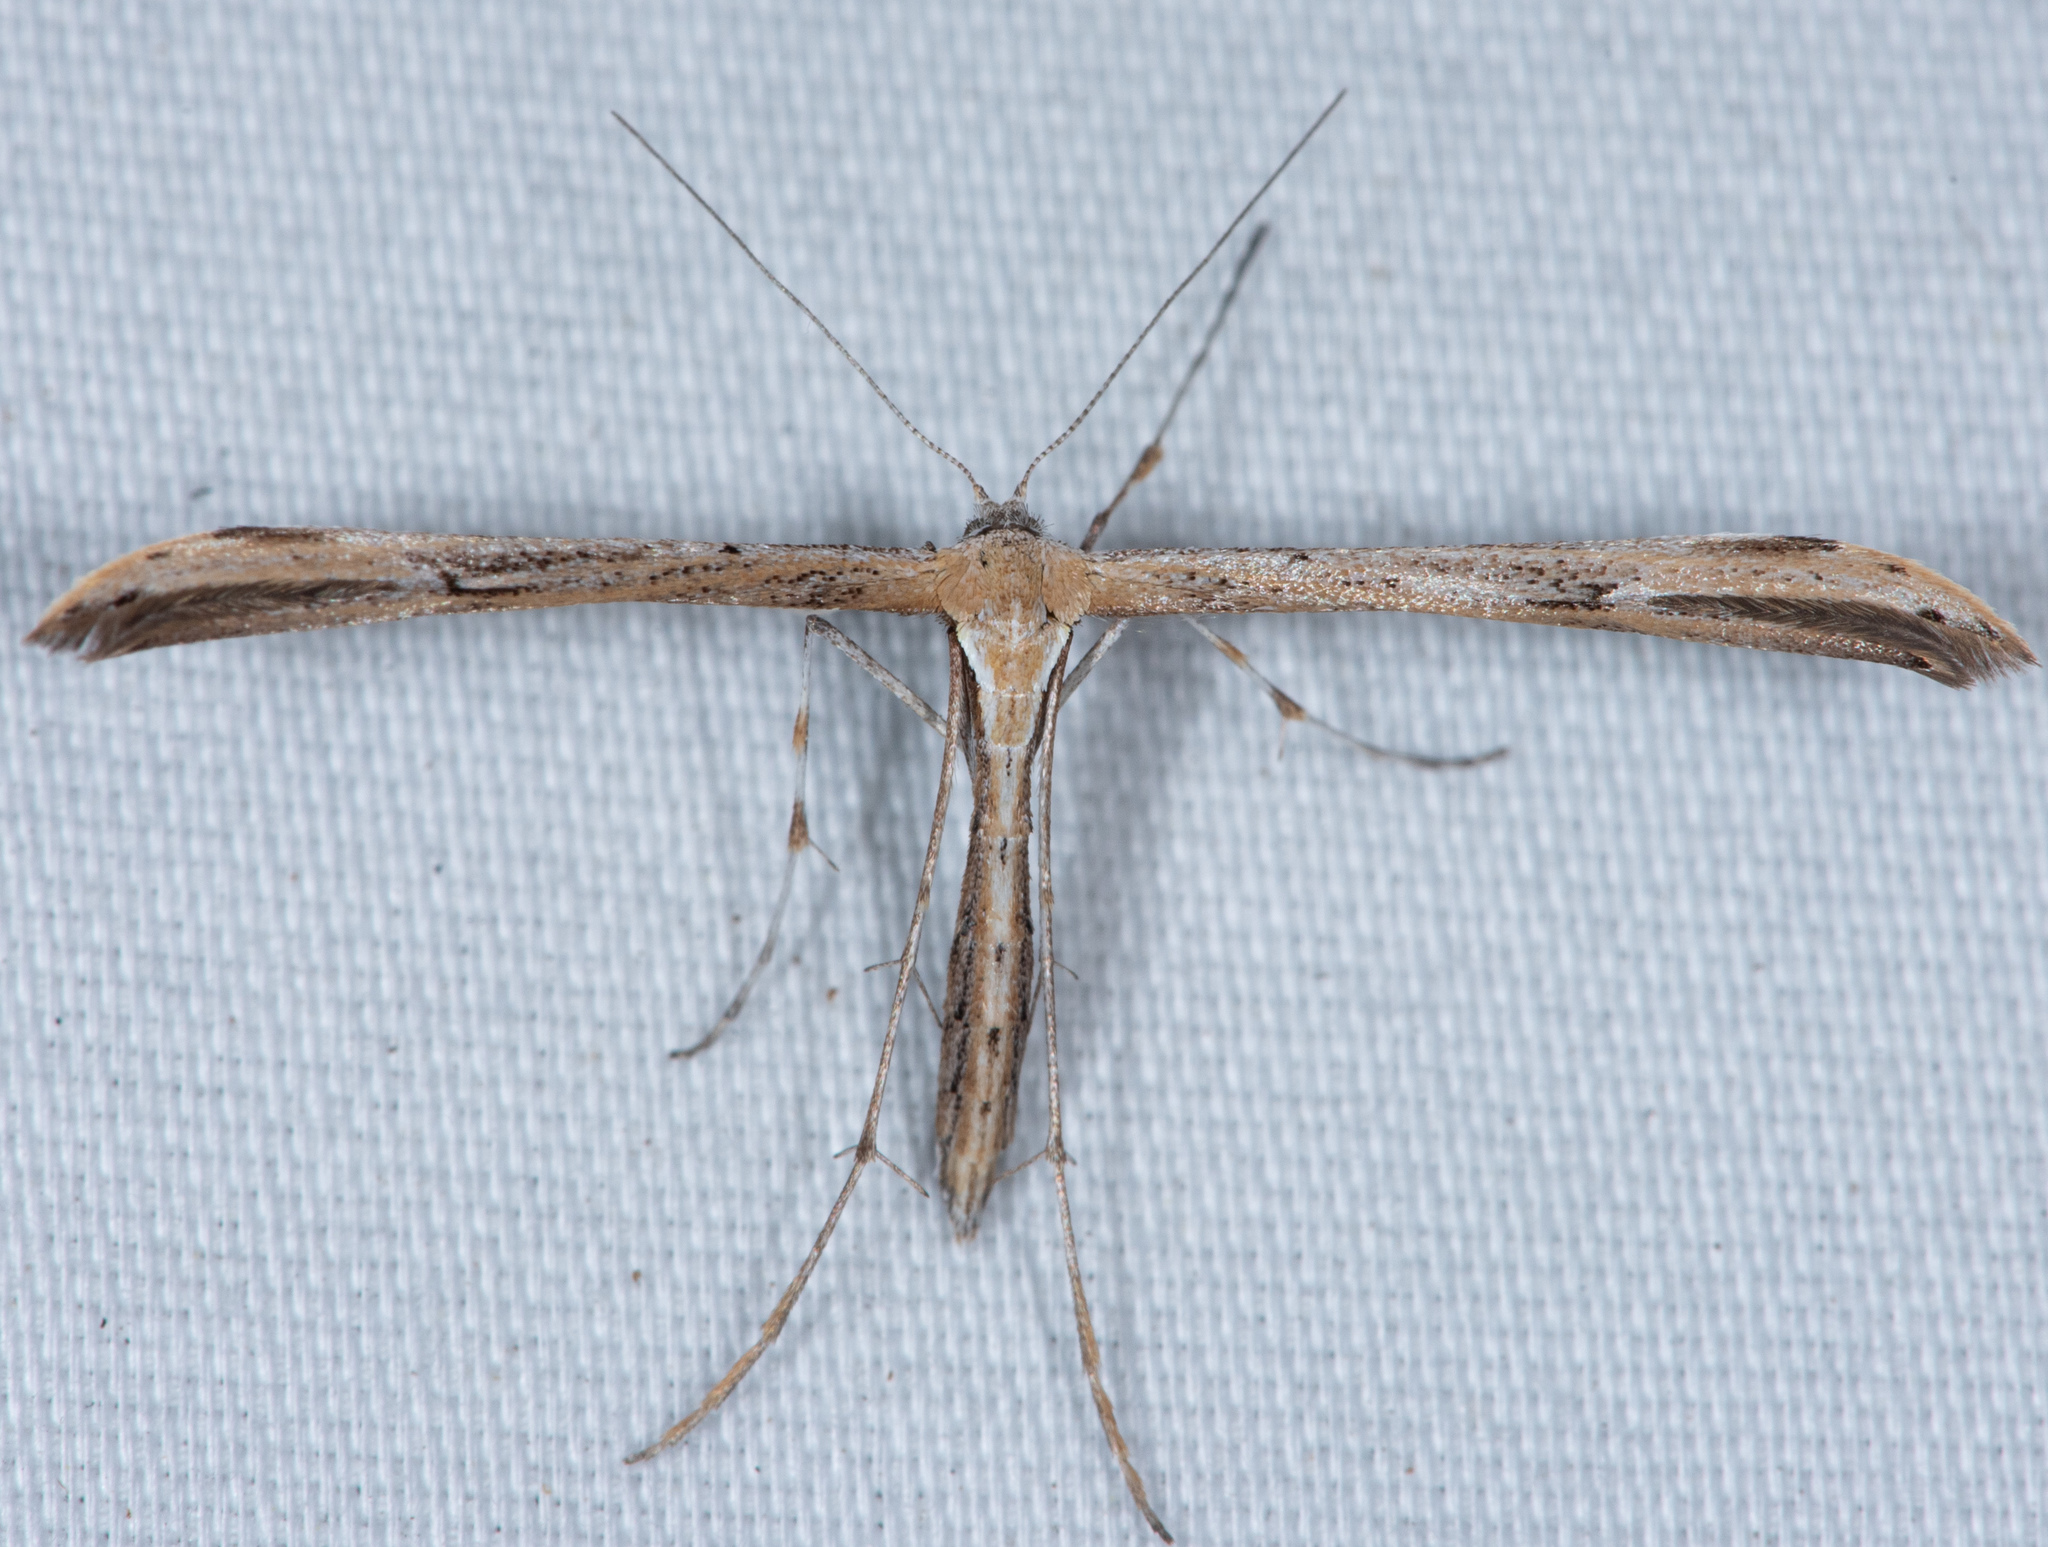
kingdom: Animalia
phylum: Arthropoda
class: Insecta
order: Lepidoptera
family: Pterophoridae
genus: Emmelina
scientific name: Emmelina monodactyla
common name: Common plume
